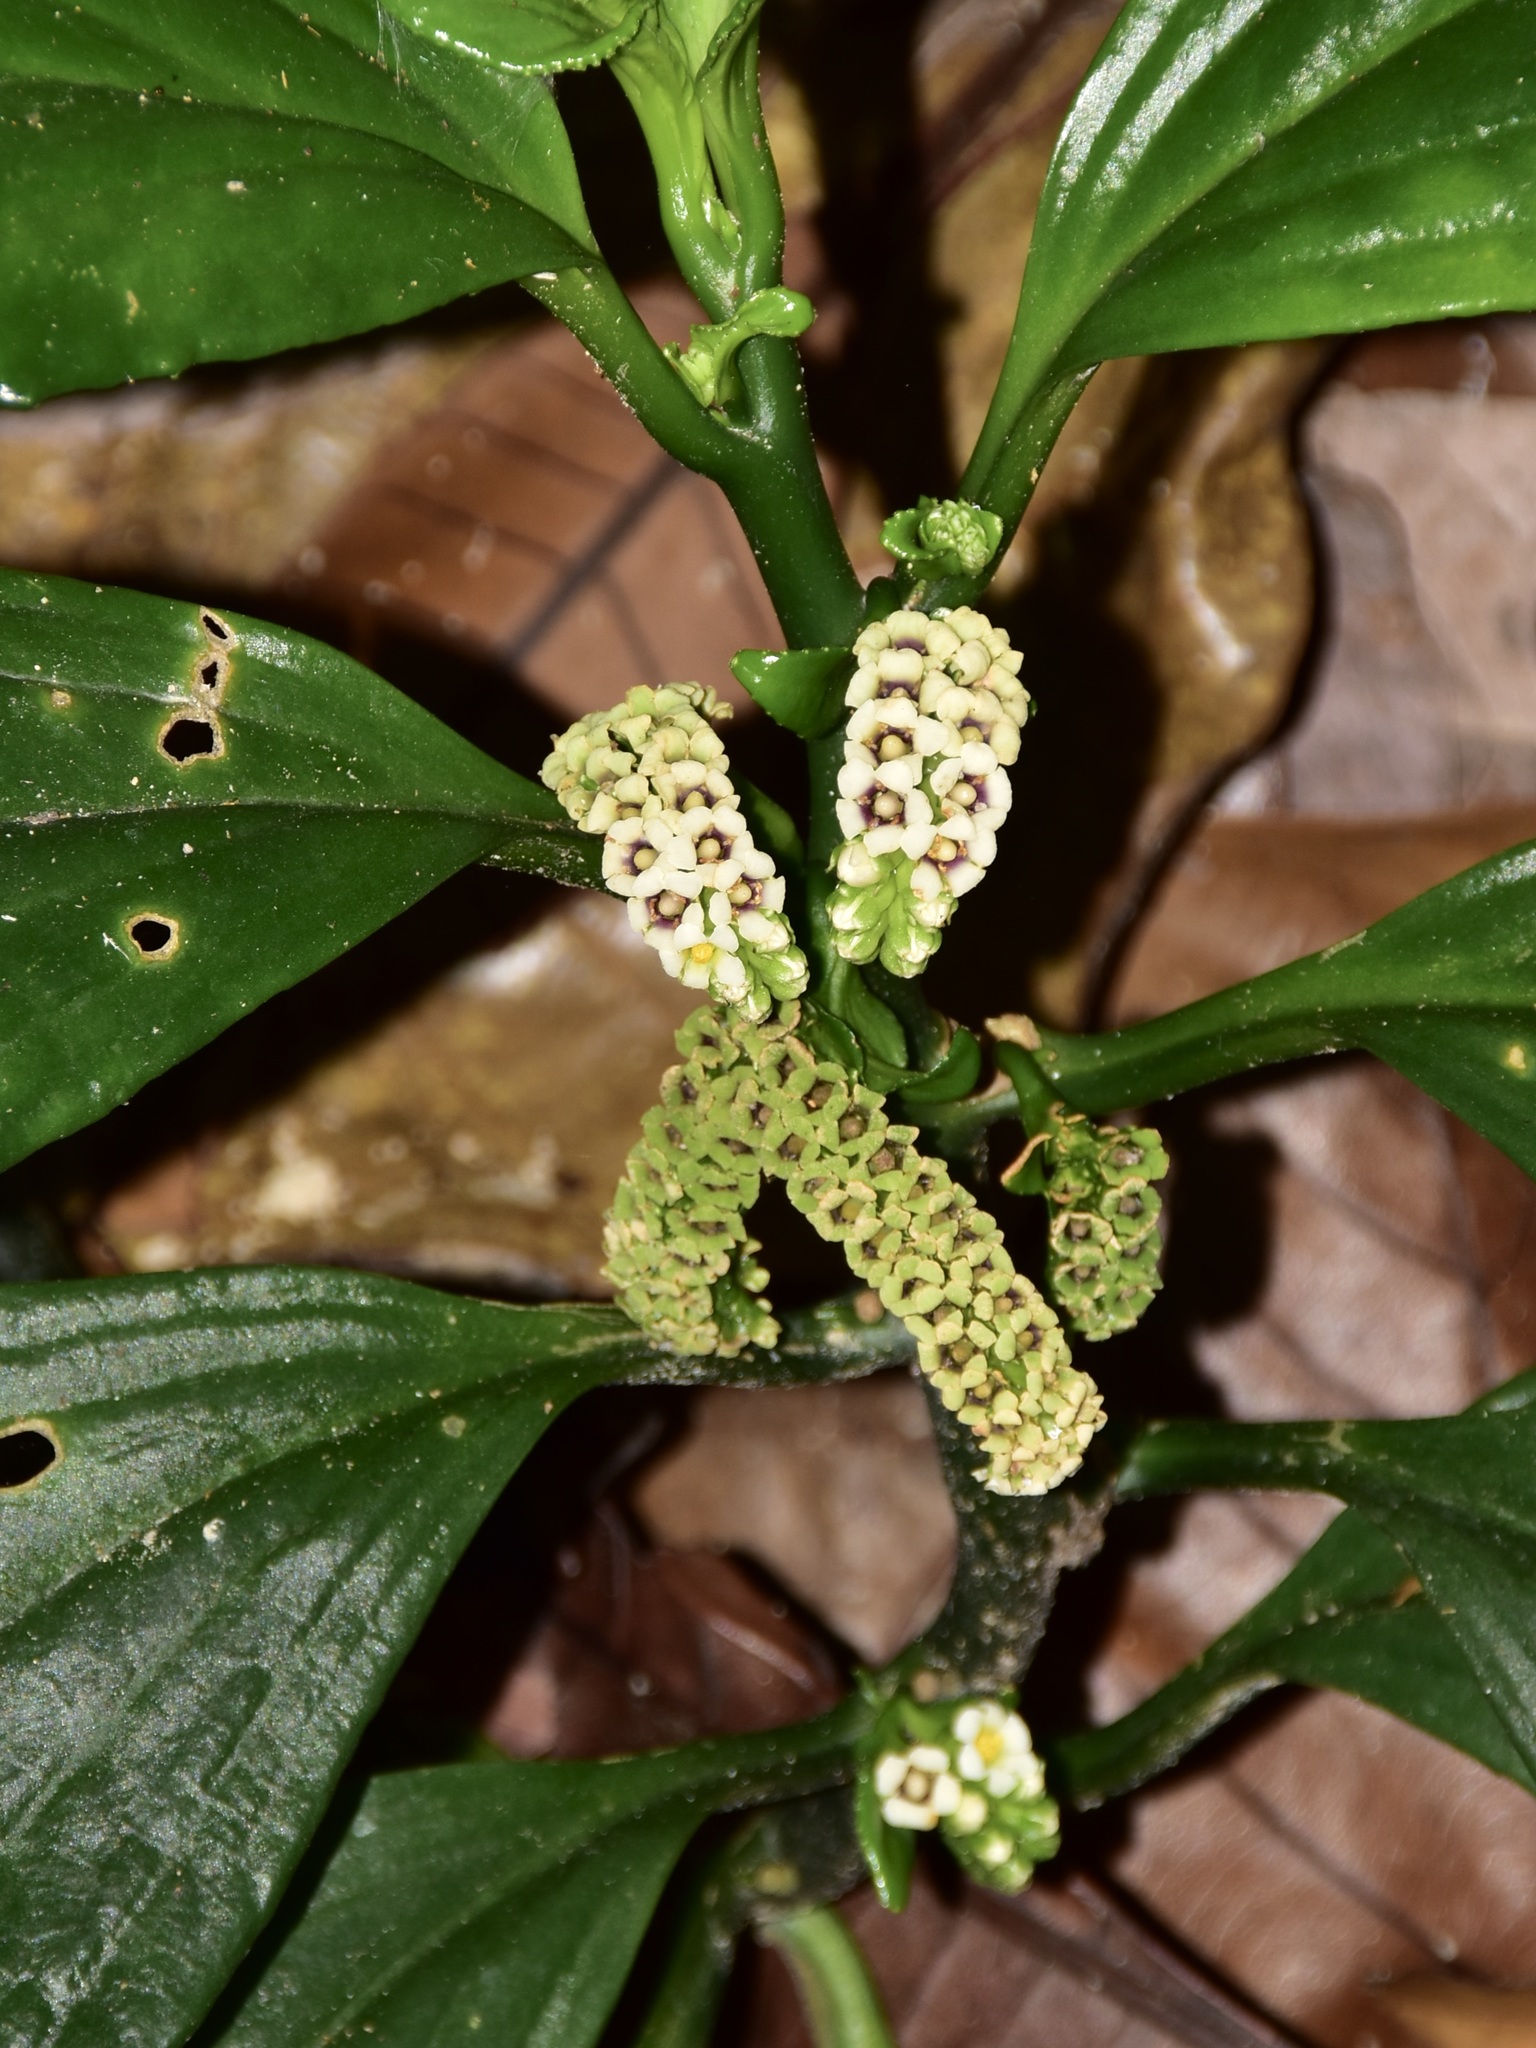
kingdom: Plantae
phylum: Tracheophyta
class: Magnoliopsida
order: Asterales
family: Pentaphragmataceae
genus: Pentaphragma
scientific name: Pentaphragma ellipticum
